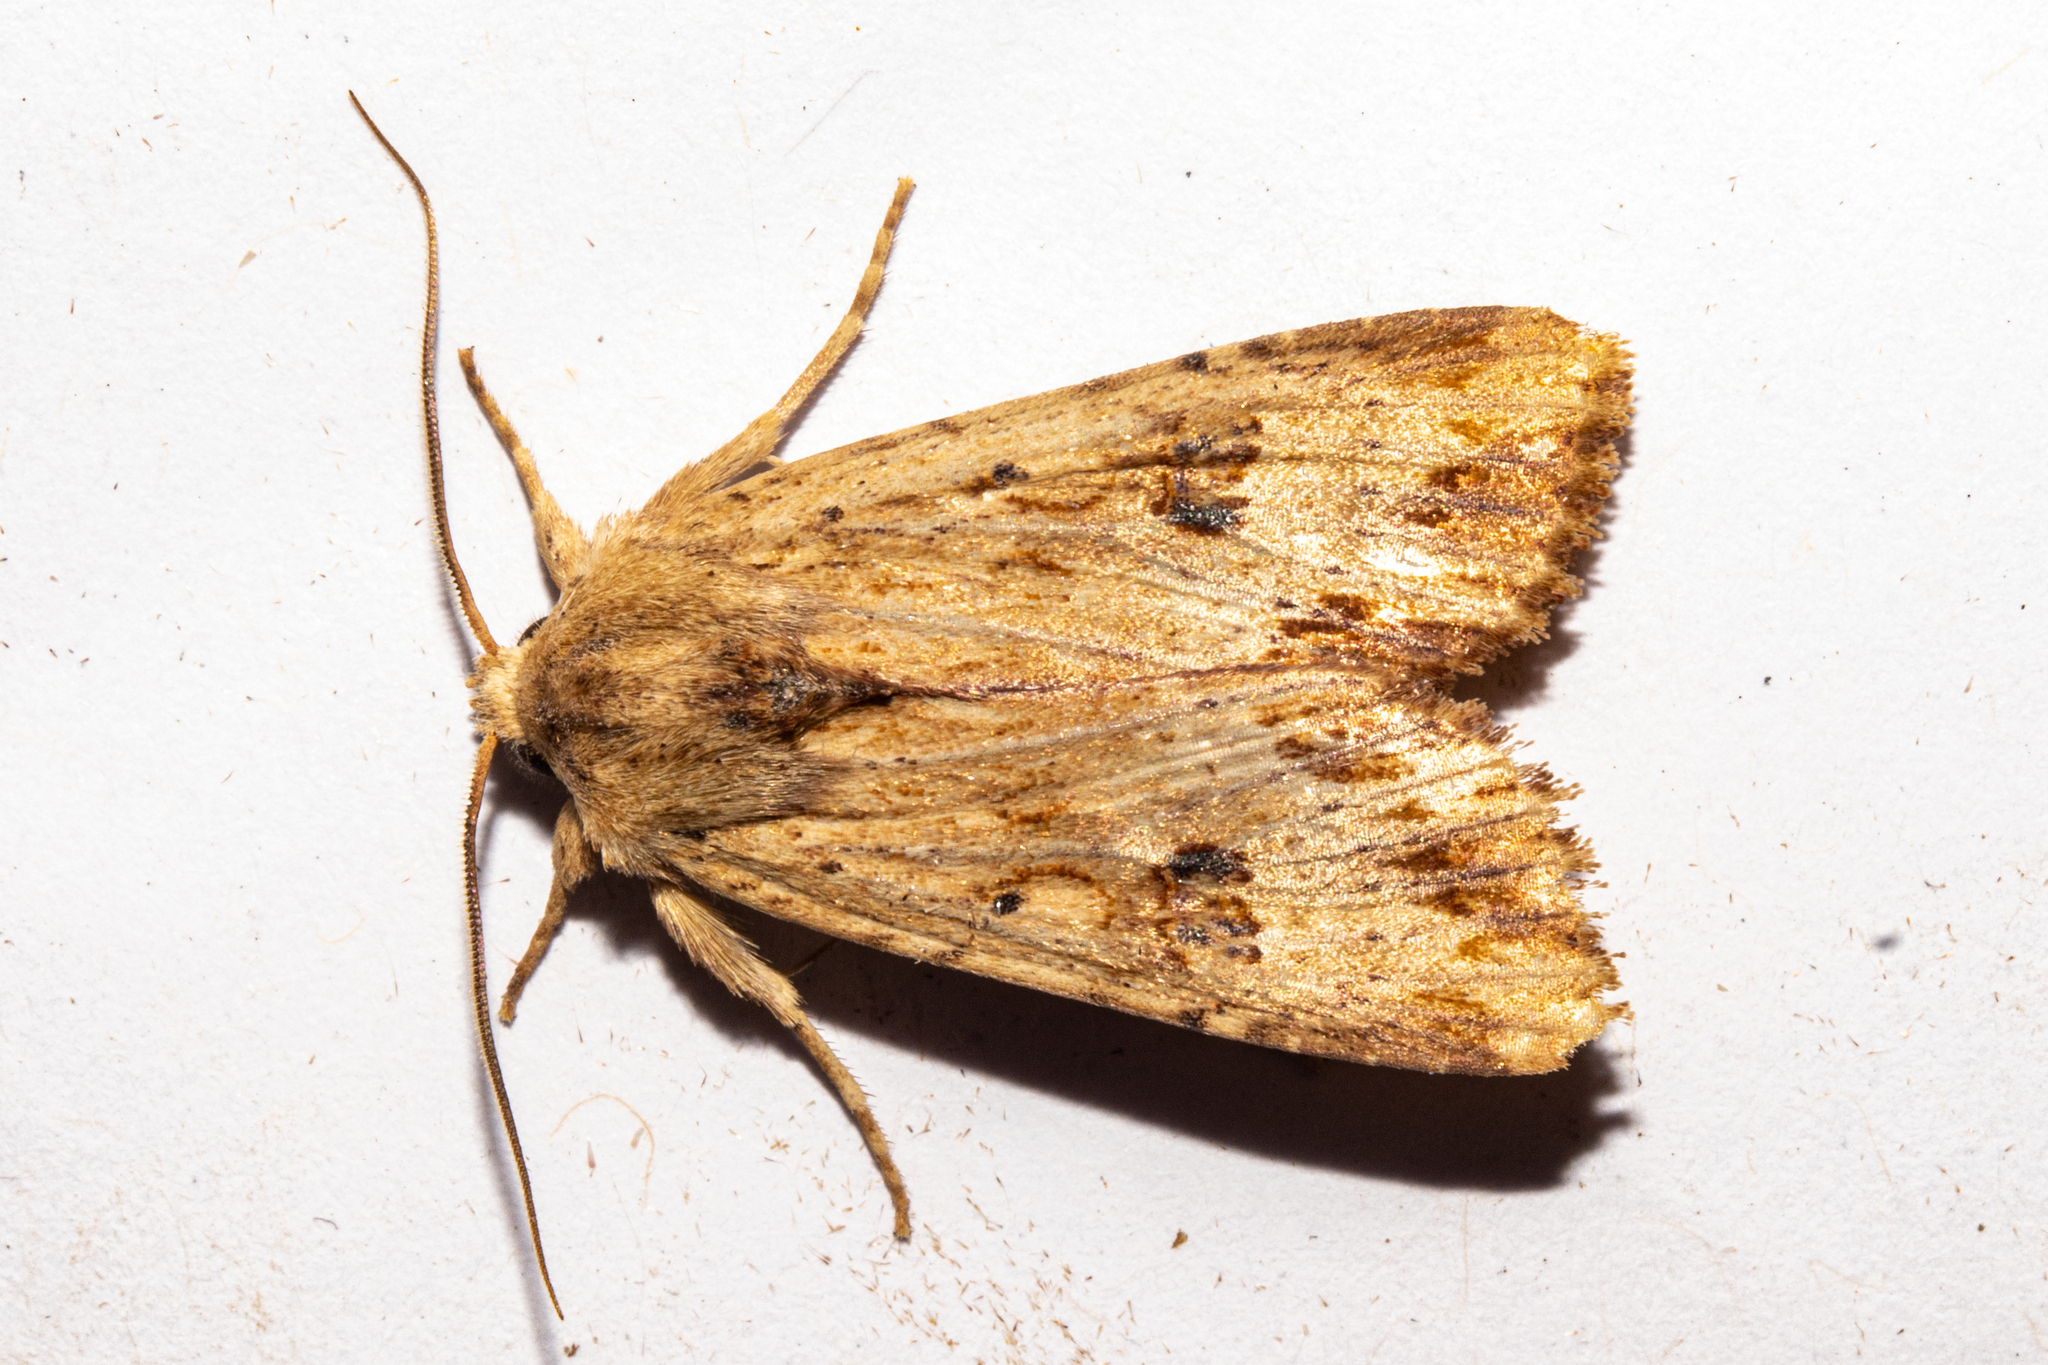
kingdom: Animalia
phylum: Arthropoda
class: Insecta
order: Lepidoptera
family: Noctuidae
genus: Ichneutica
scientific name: Ichneutica
